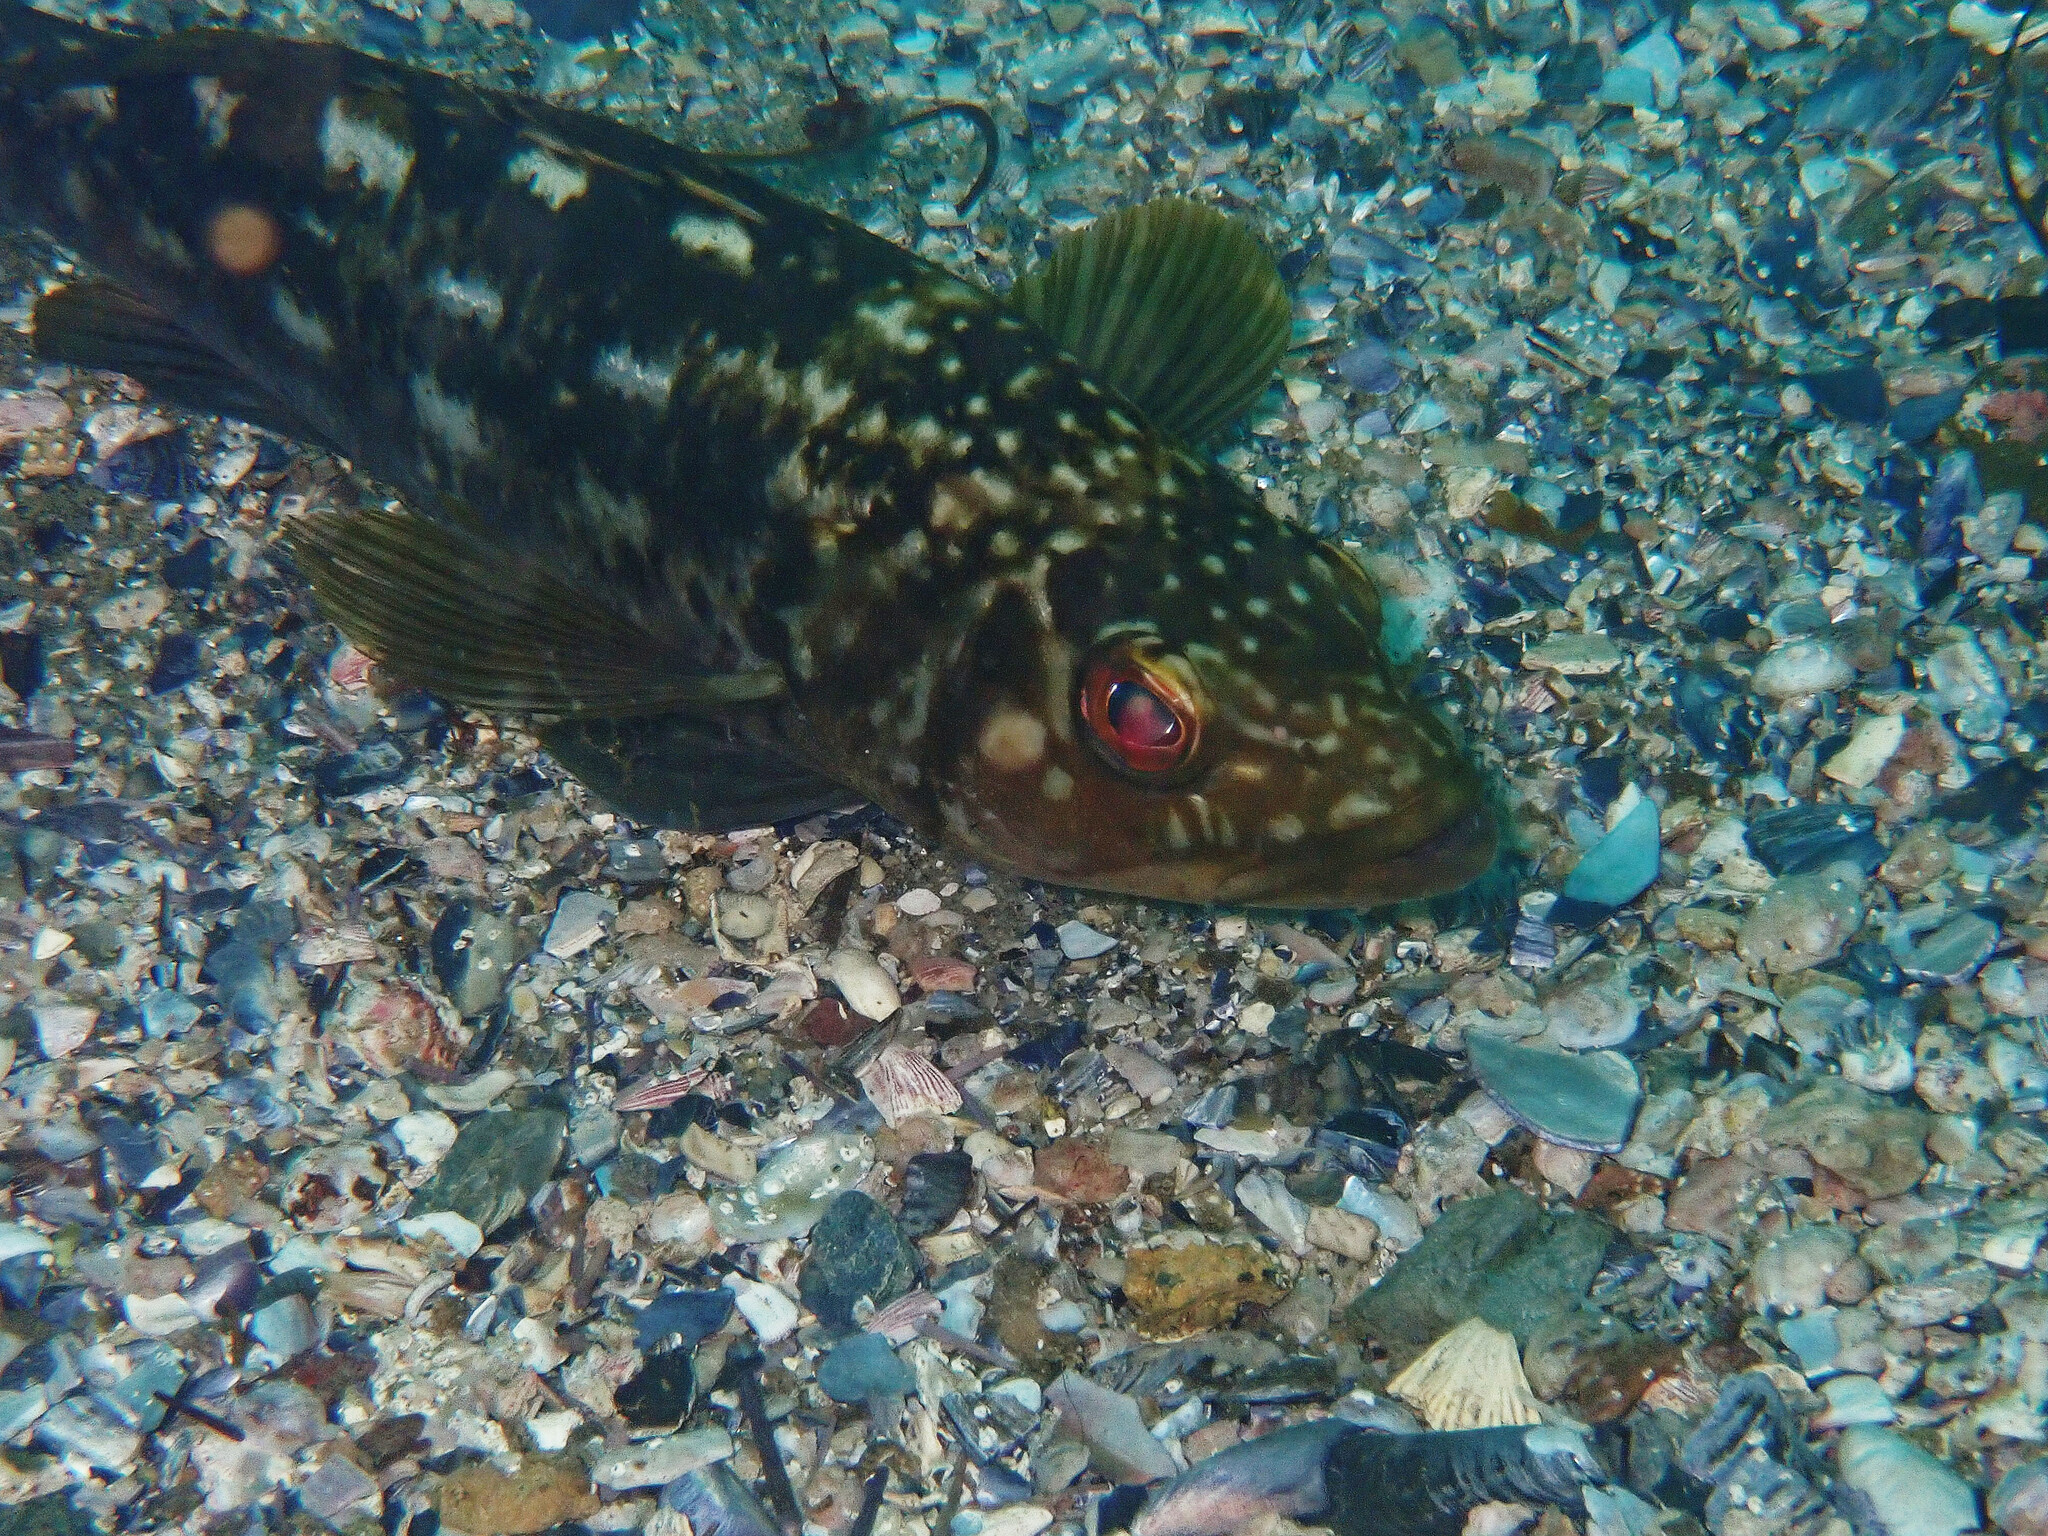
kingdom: Animalia
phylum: Chordata
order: Perciformes
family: Serranidae
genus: Paralabrax
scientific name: Paralabrax clathratus
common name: Kelp bass
